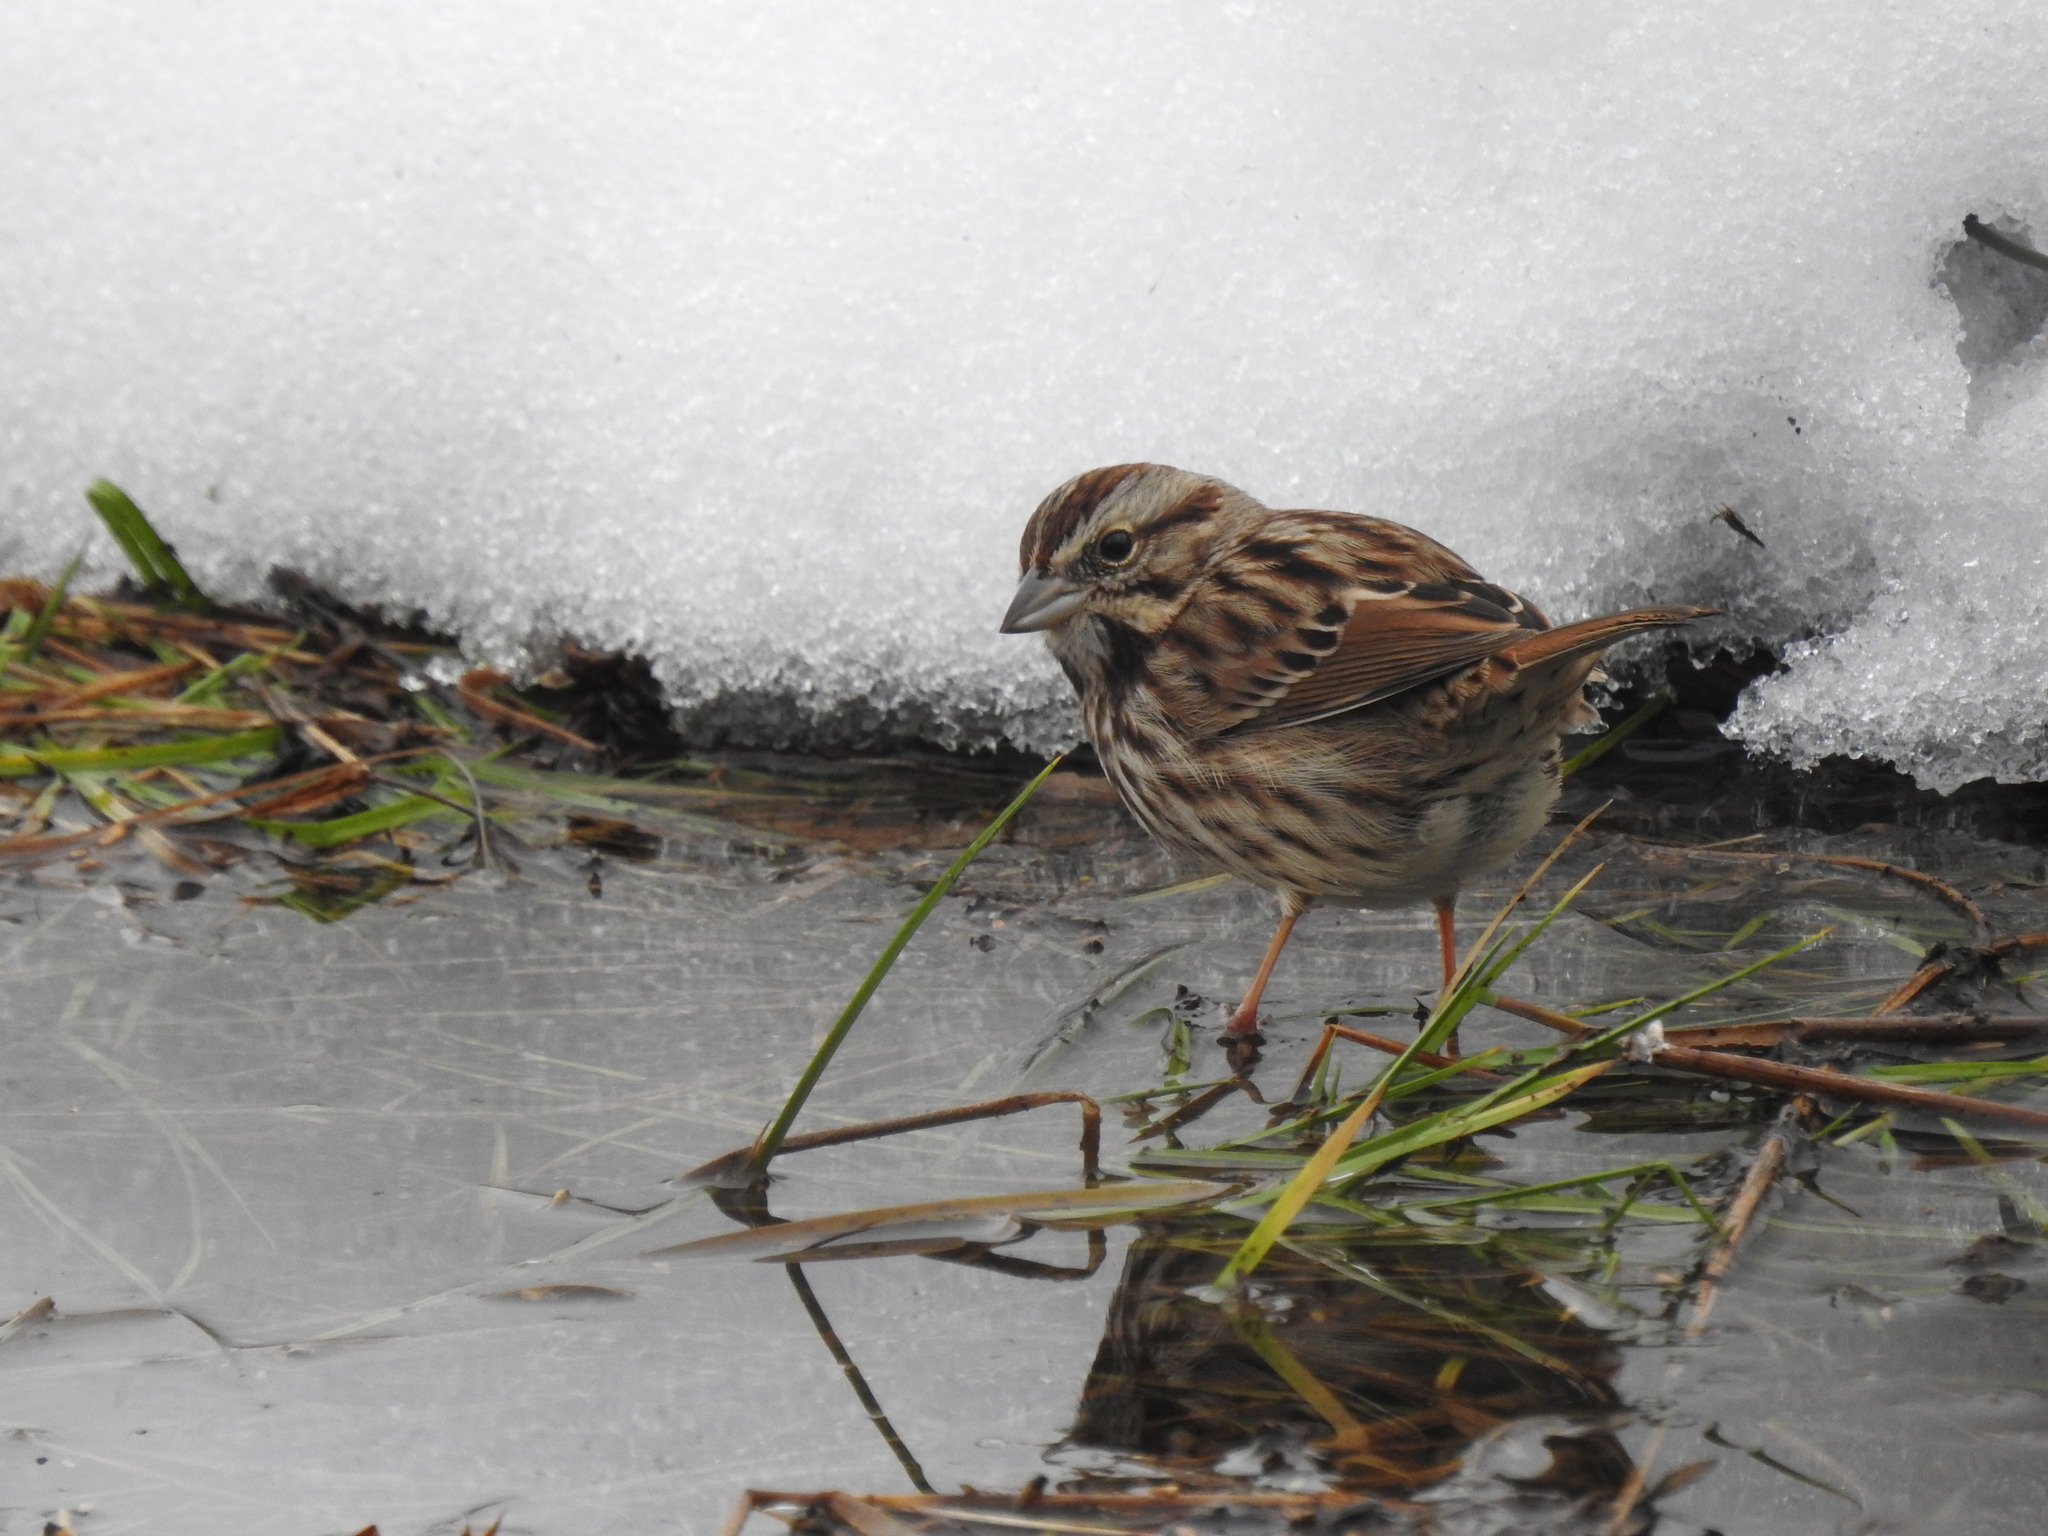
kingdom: Animalia
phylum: Chordata
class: Aves
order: Passeriformes
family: Passerellidae
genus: Melospiza
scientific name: Melospiza melodia
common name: Song sparrow
